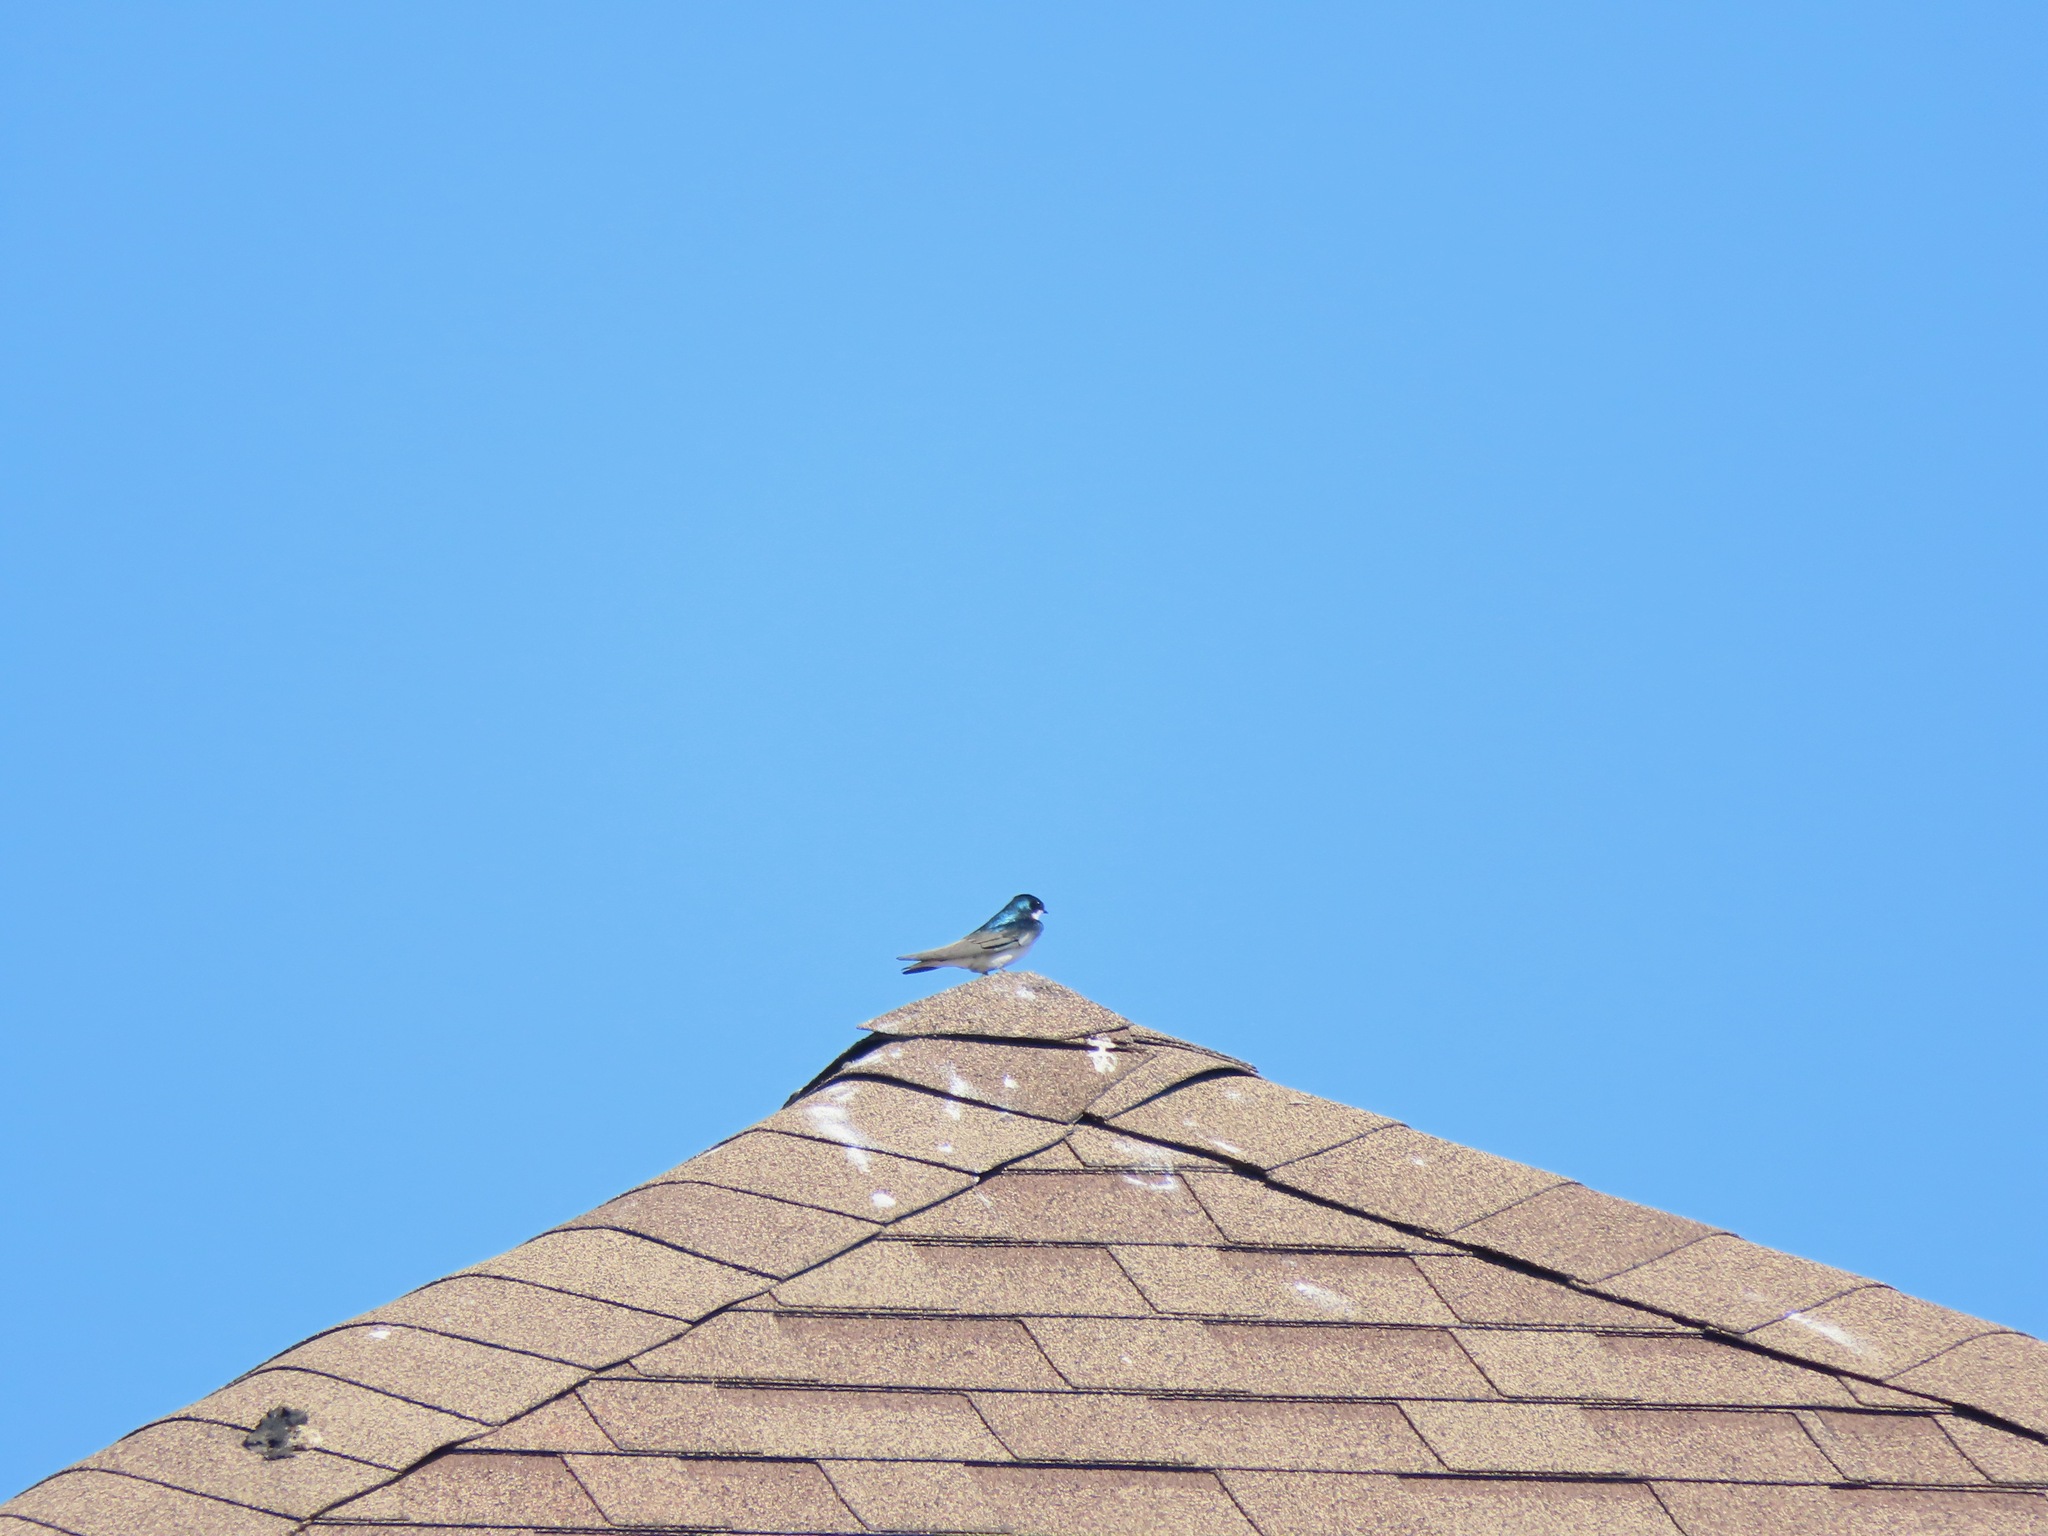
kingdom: Animalia
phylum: Chordata
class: Aves
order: Passeriformes
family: Hirundinidae
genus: Tachycineta
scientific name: Tachycineta bicolor
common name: Tree swallow
